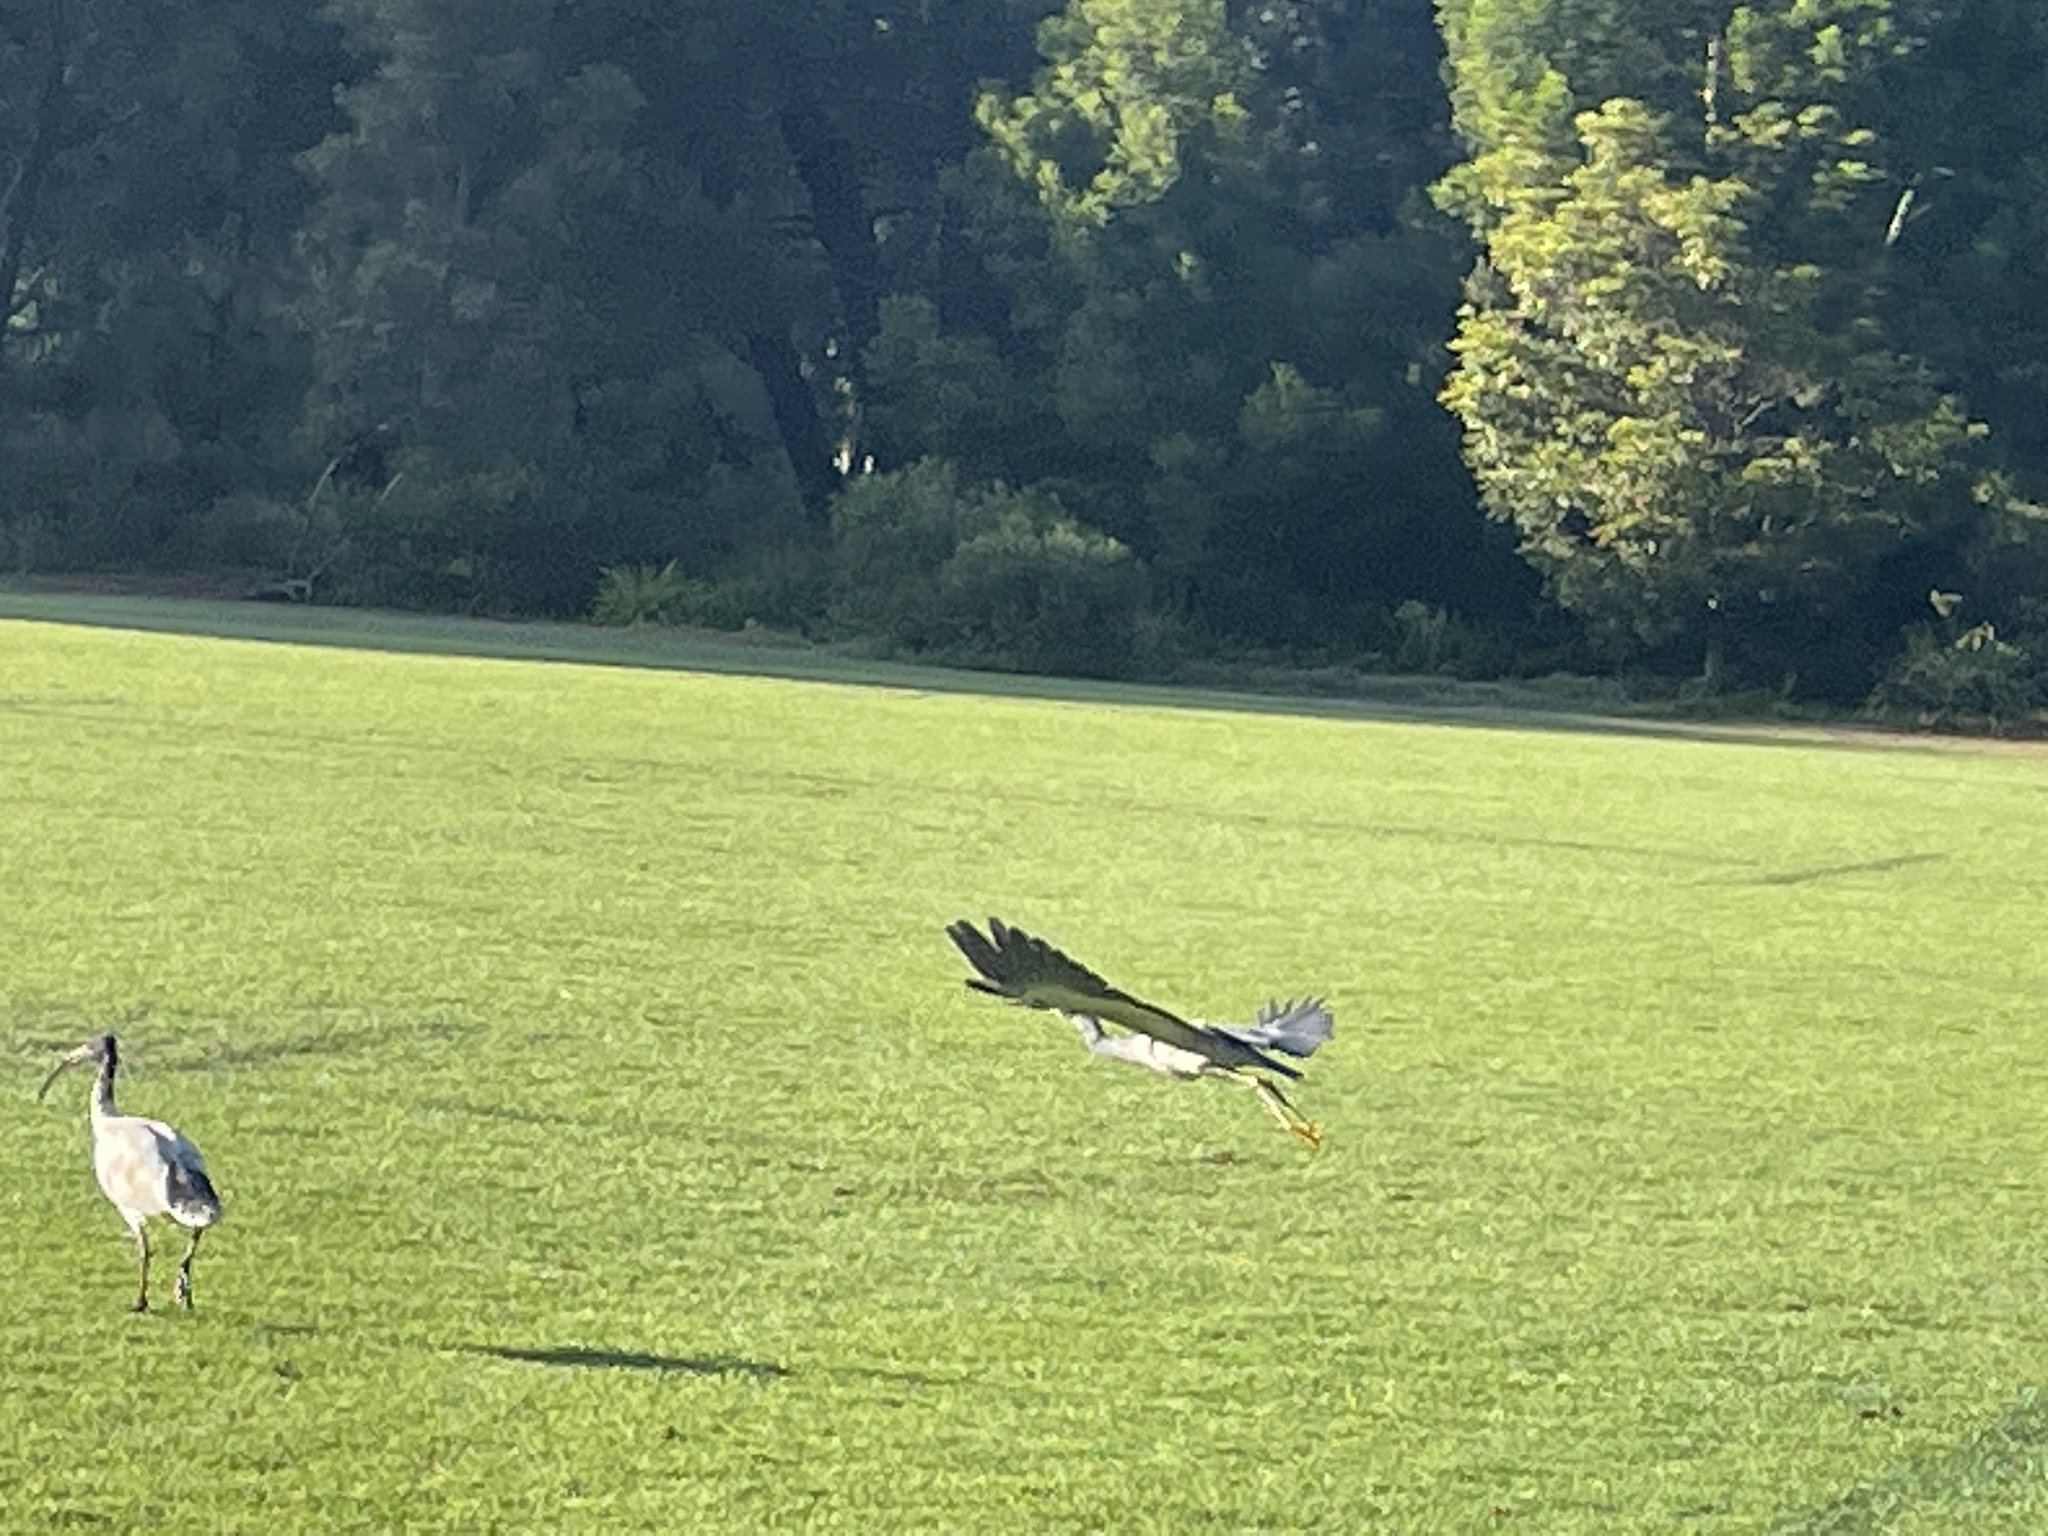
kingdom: Animalia
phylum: Chordata
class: Aves
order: Pelecaniformes
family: Ardeidae
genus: Egretta
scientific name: Egretta novaehollandiae
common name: White-faced heron
